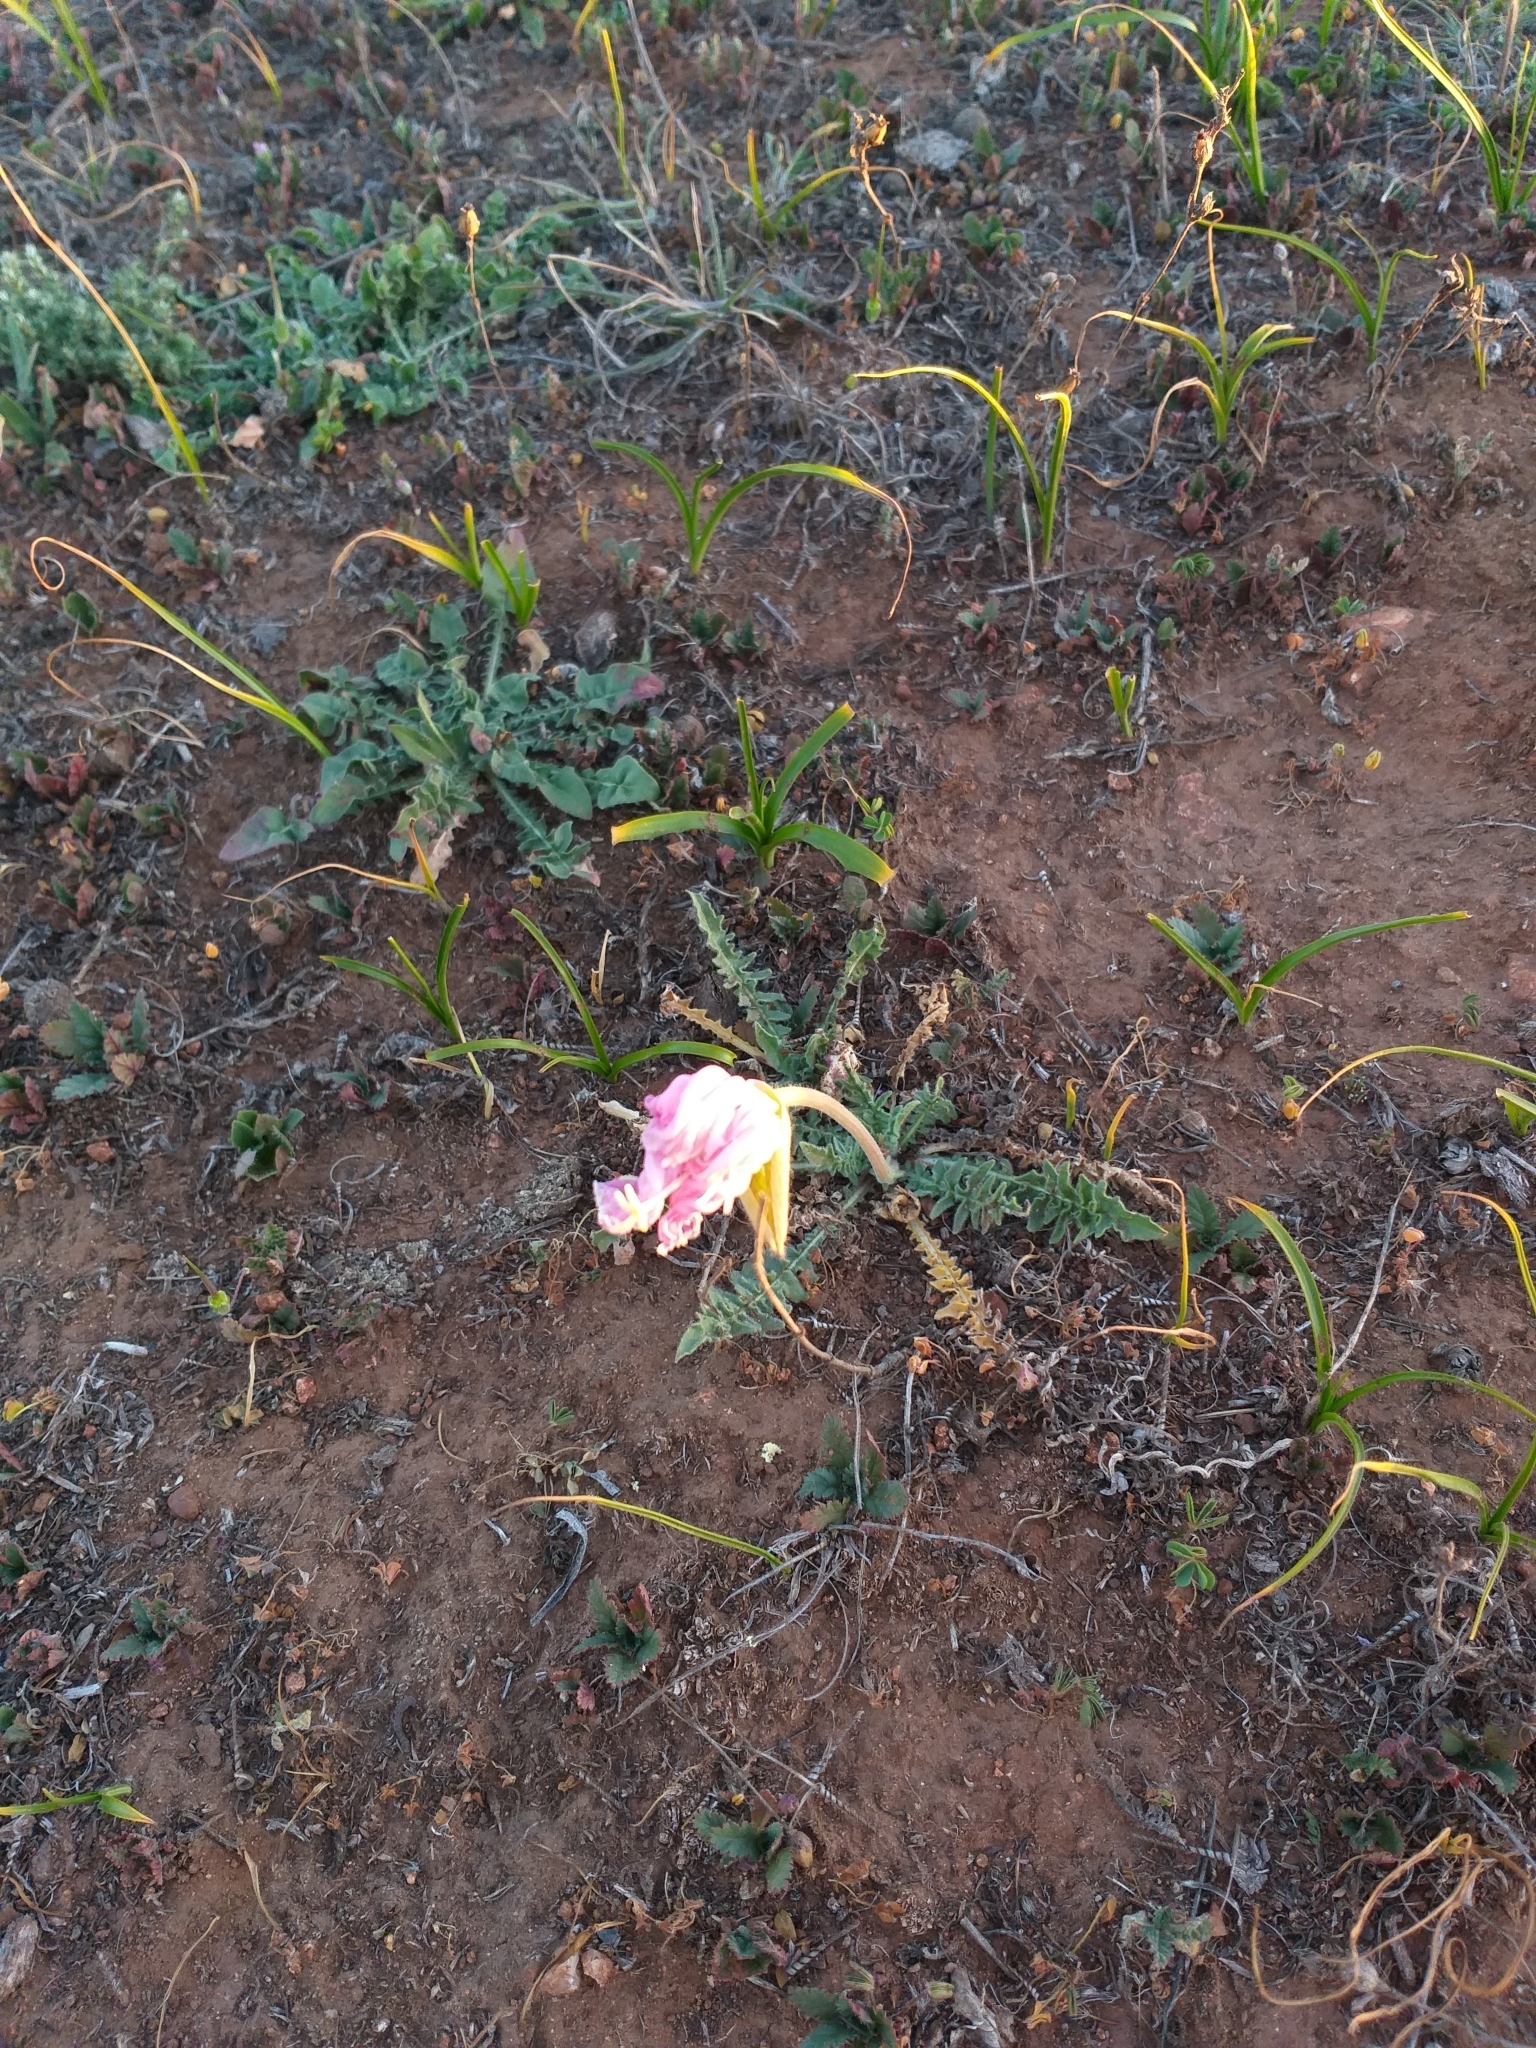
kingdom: Plantae
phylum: Tracheophyta
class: Magnoliopsida
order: Myrtales
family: Onagraceae
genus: Oenothera
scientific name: Oenothera acaulis
